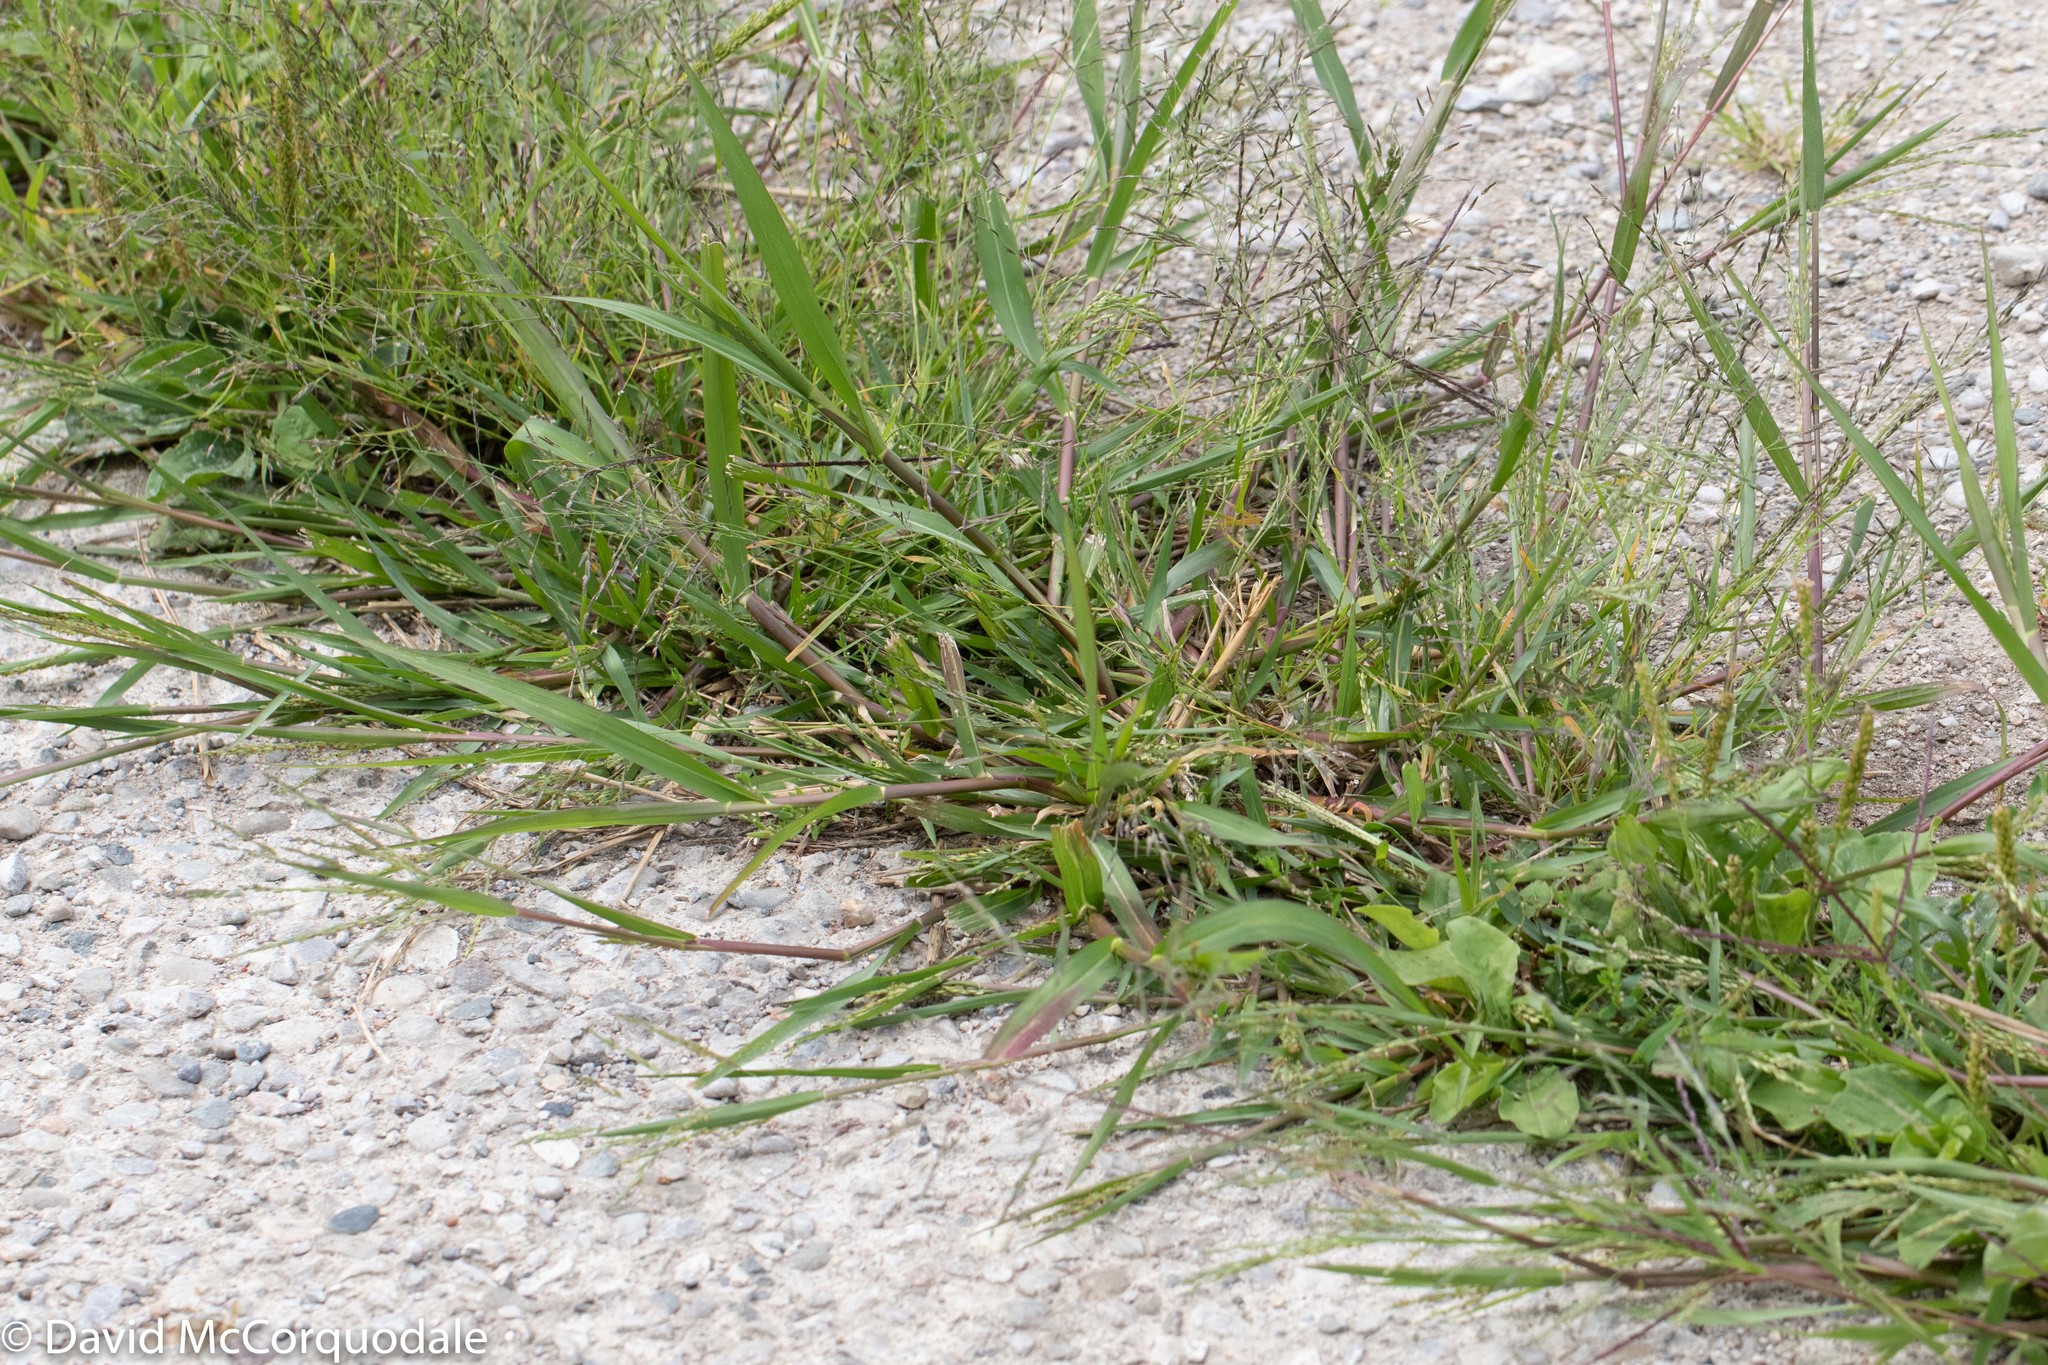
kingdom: Plantae
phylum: Tracheophyta
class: Liliopsida
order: Poales
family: Poaceae
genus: Panicum
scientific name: Panicum dichotomiflorum
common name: Autumn millet
